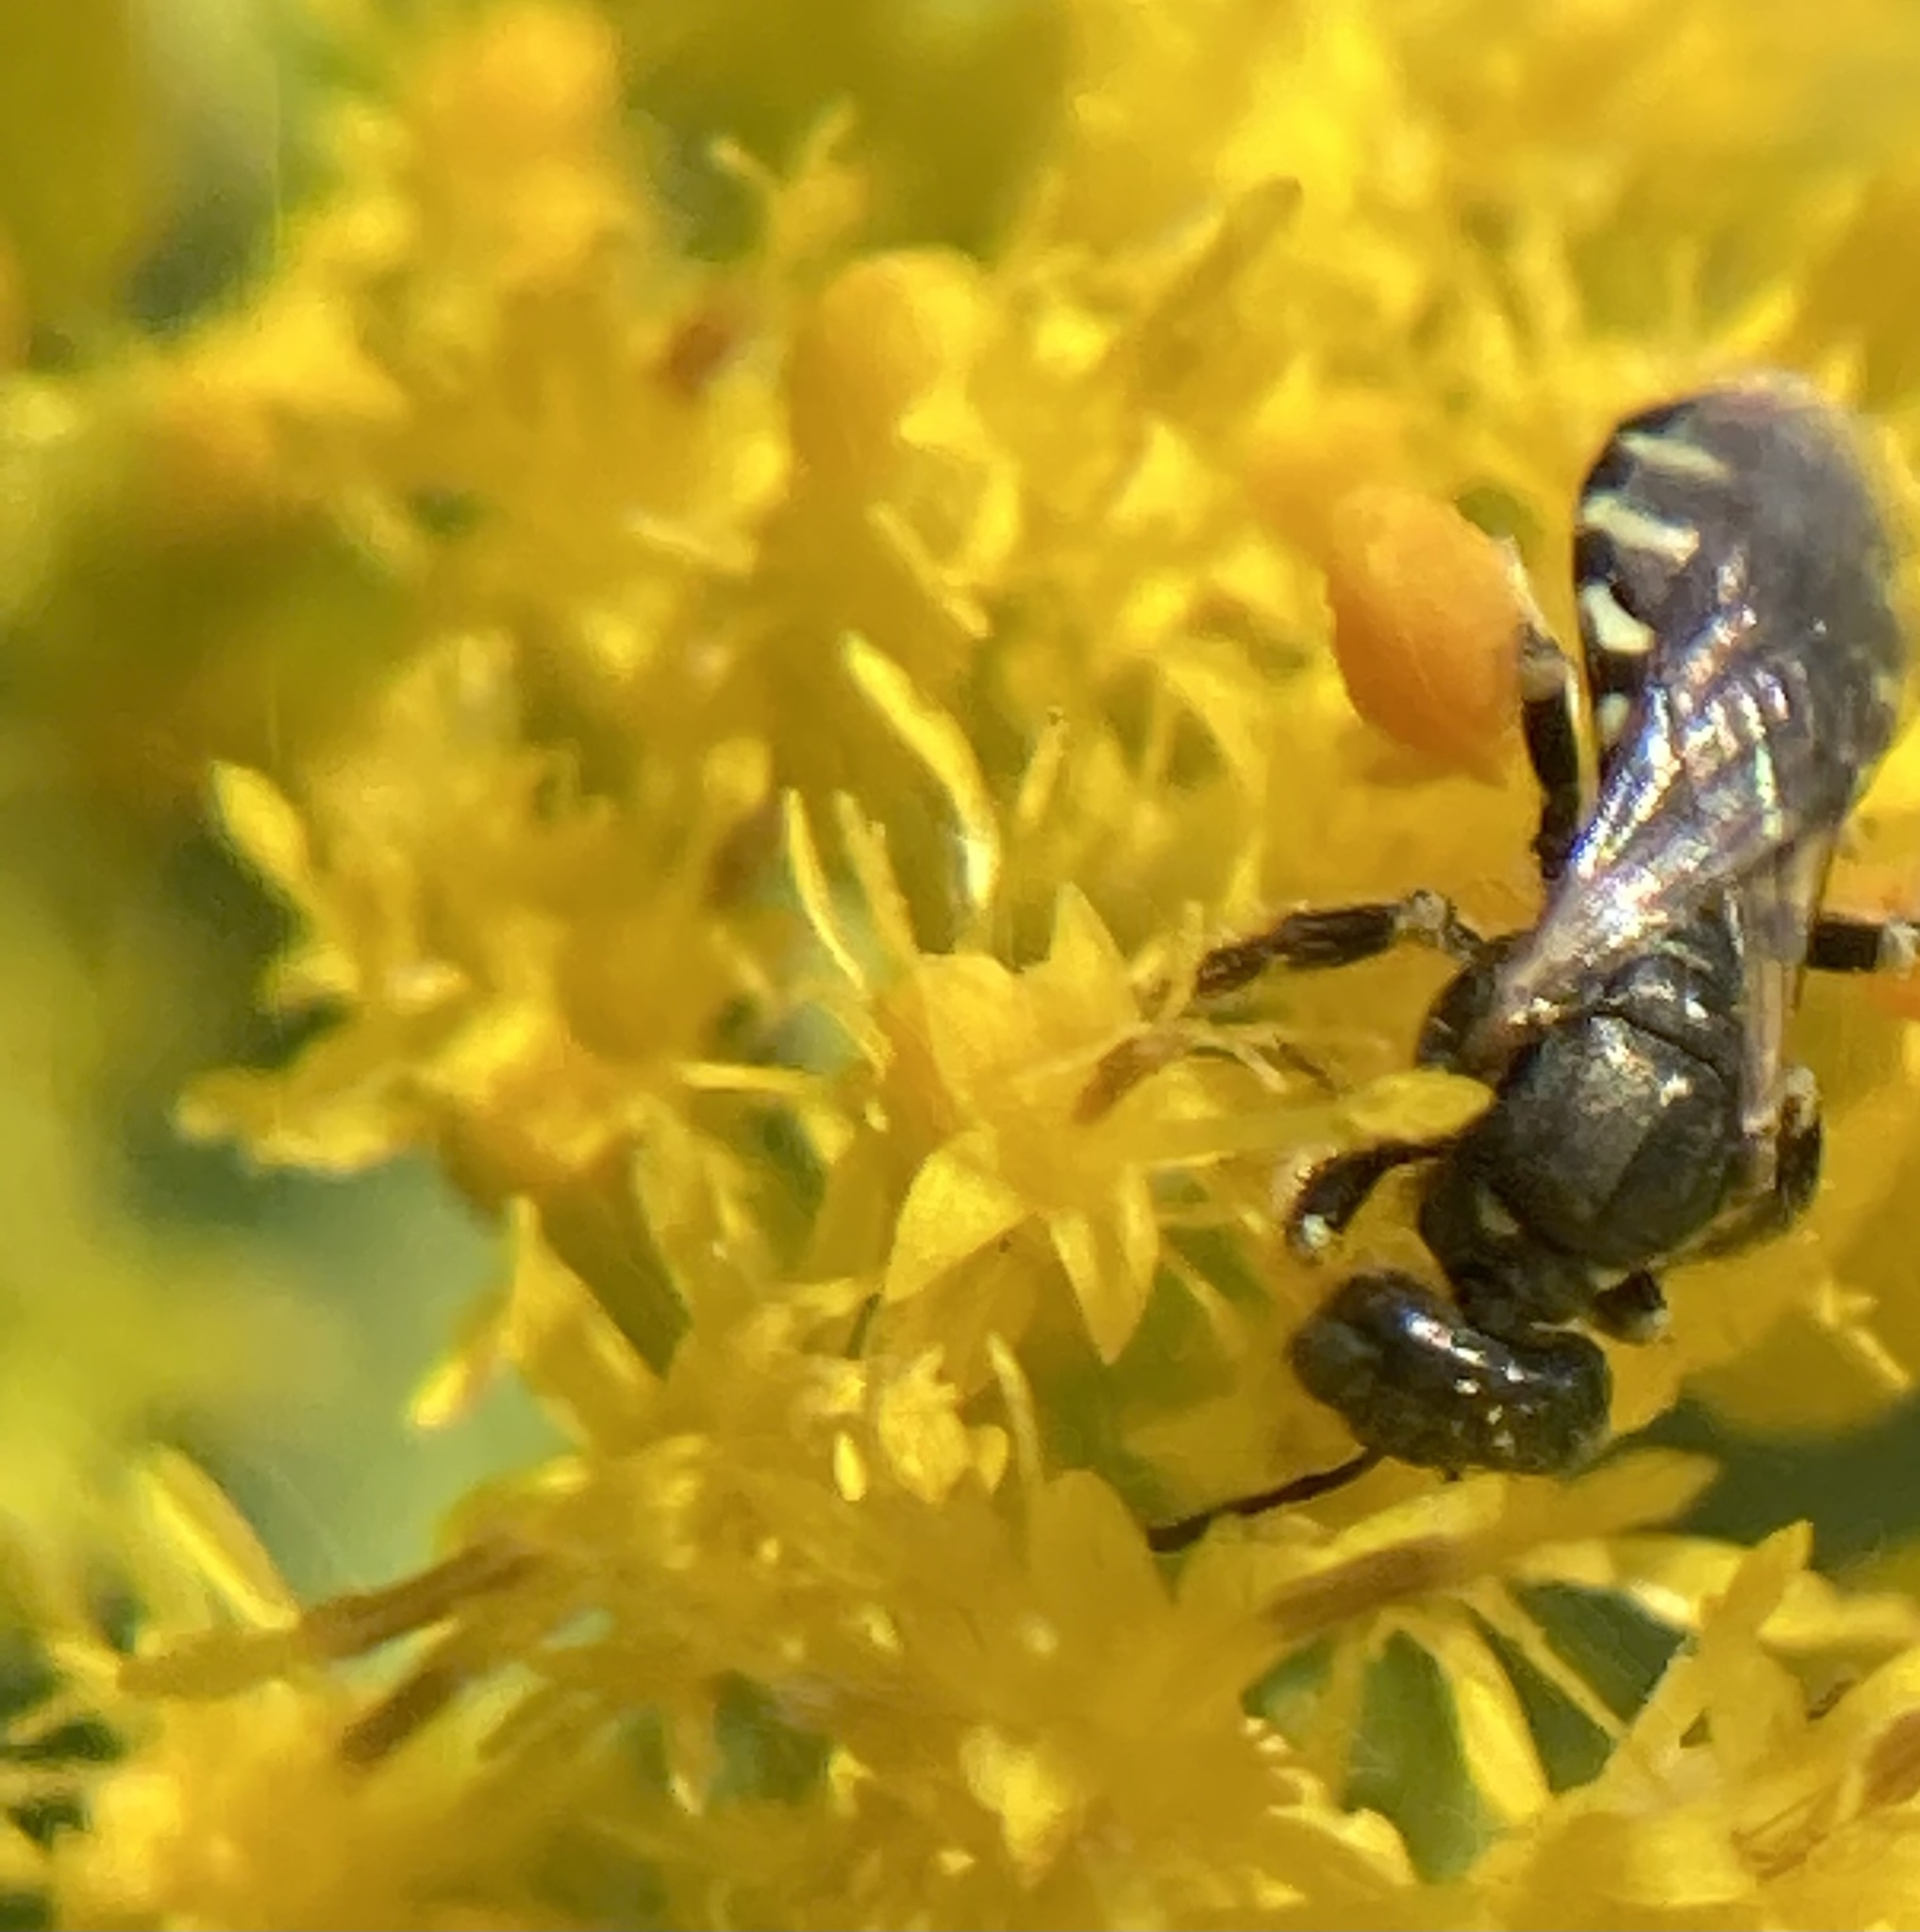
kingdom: Animalia
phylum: Arthropoda
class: Insecta
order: Hymenoptera
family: Andrenidae
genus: Perdita
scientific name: Perdita octomaculata
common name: Eight-spotted miner bee
